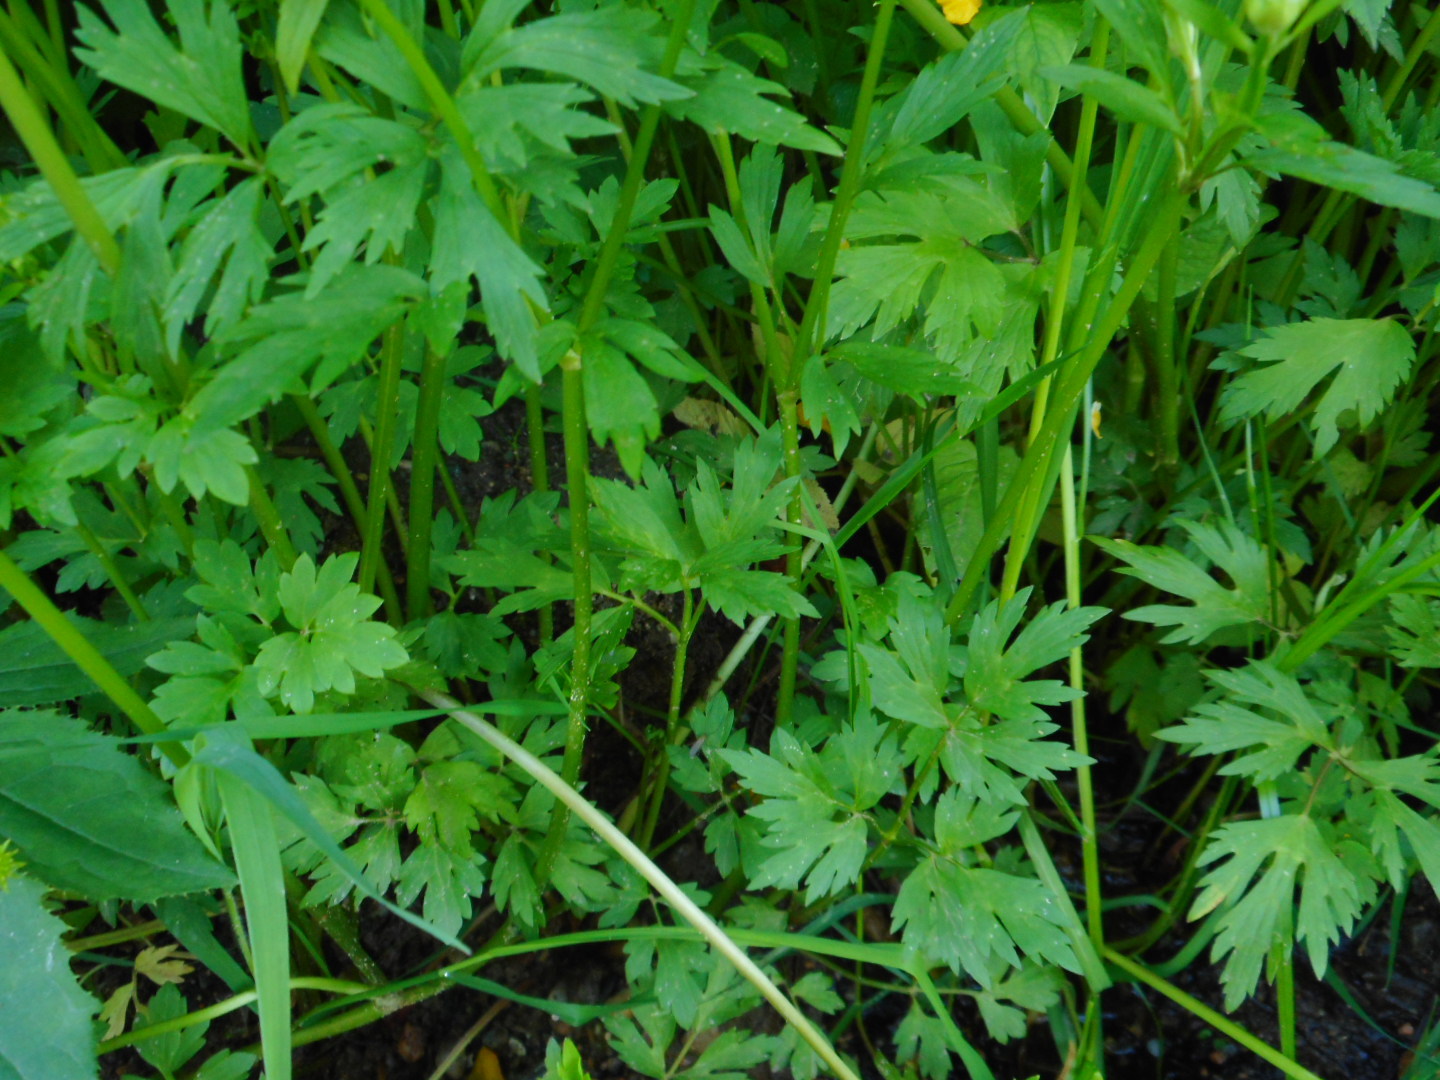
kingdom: Plantae
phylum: Tracheophyta
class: Magnoliopsida
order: Ranunculales
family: Ranunculaceae
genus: Ranunculus
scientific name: Ranunculus repens
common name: Creeping buttercup
